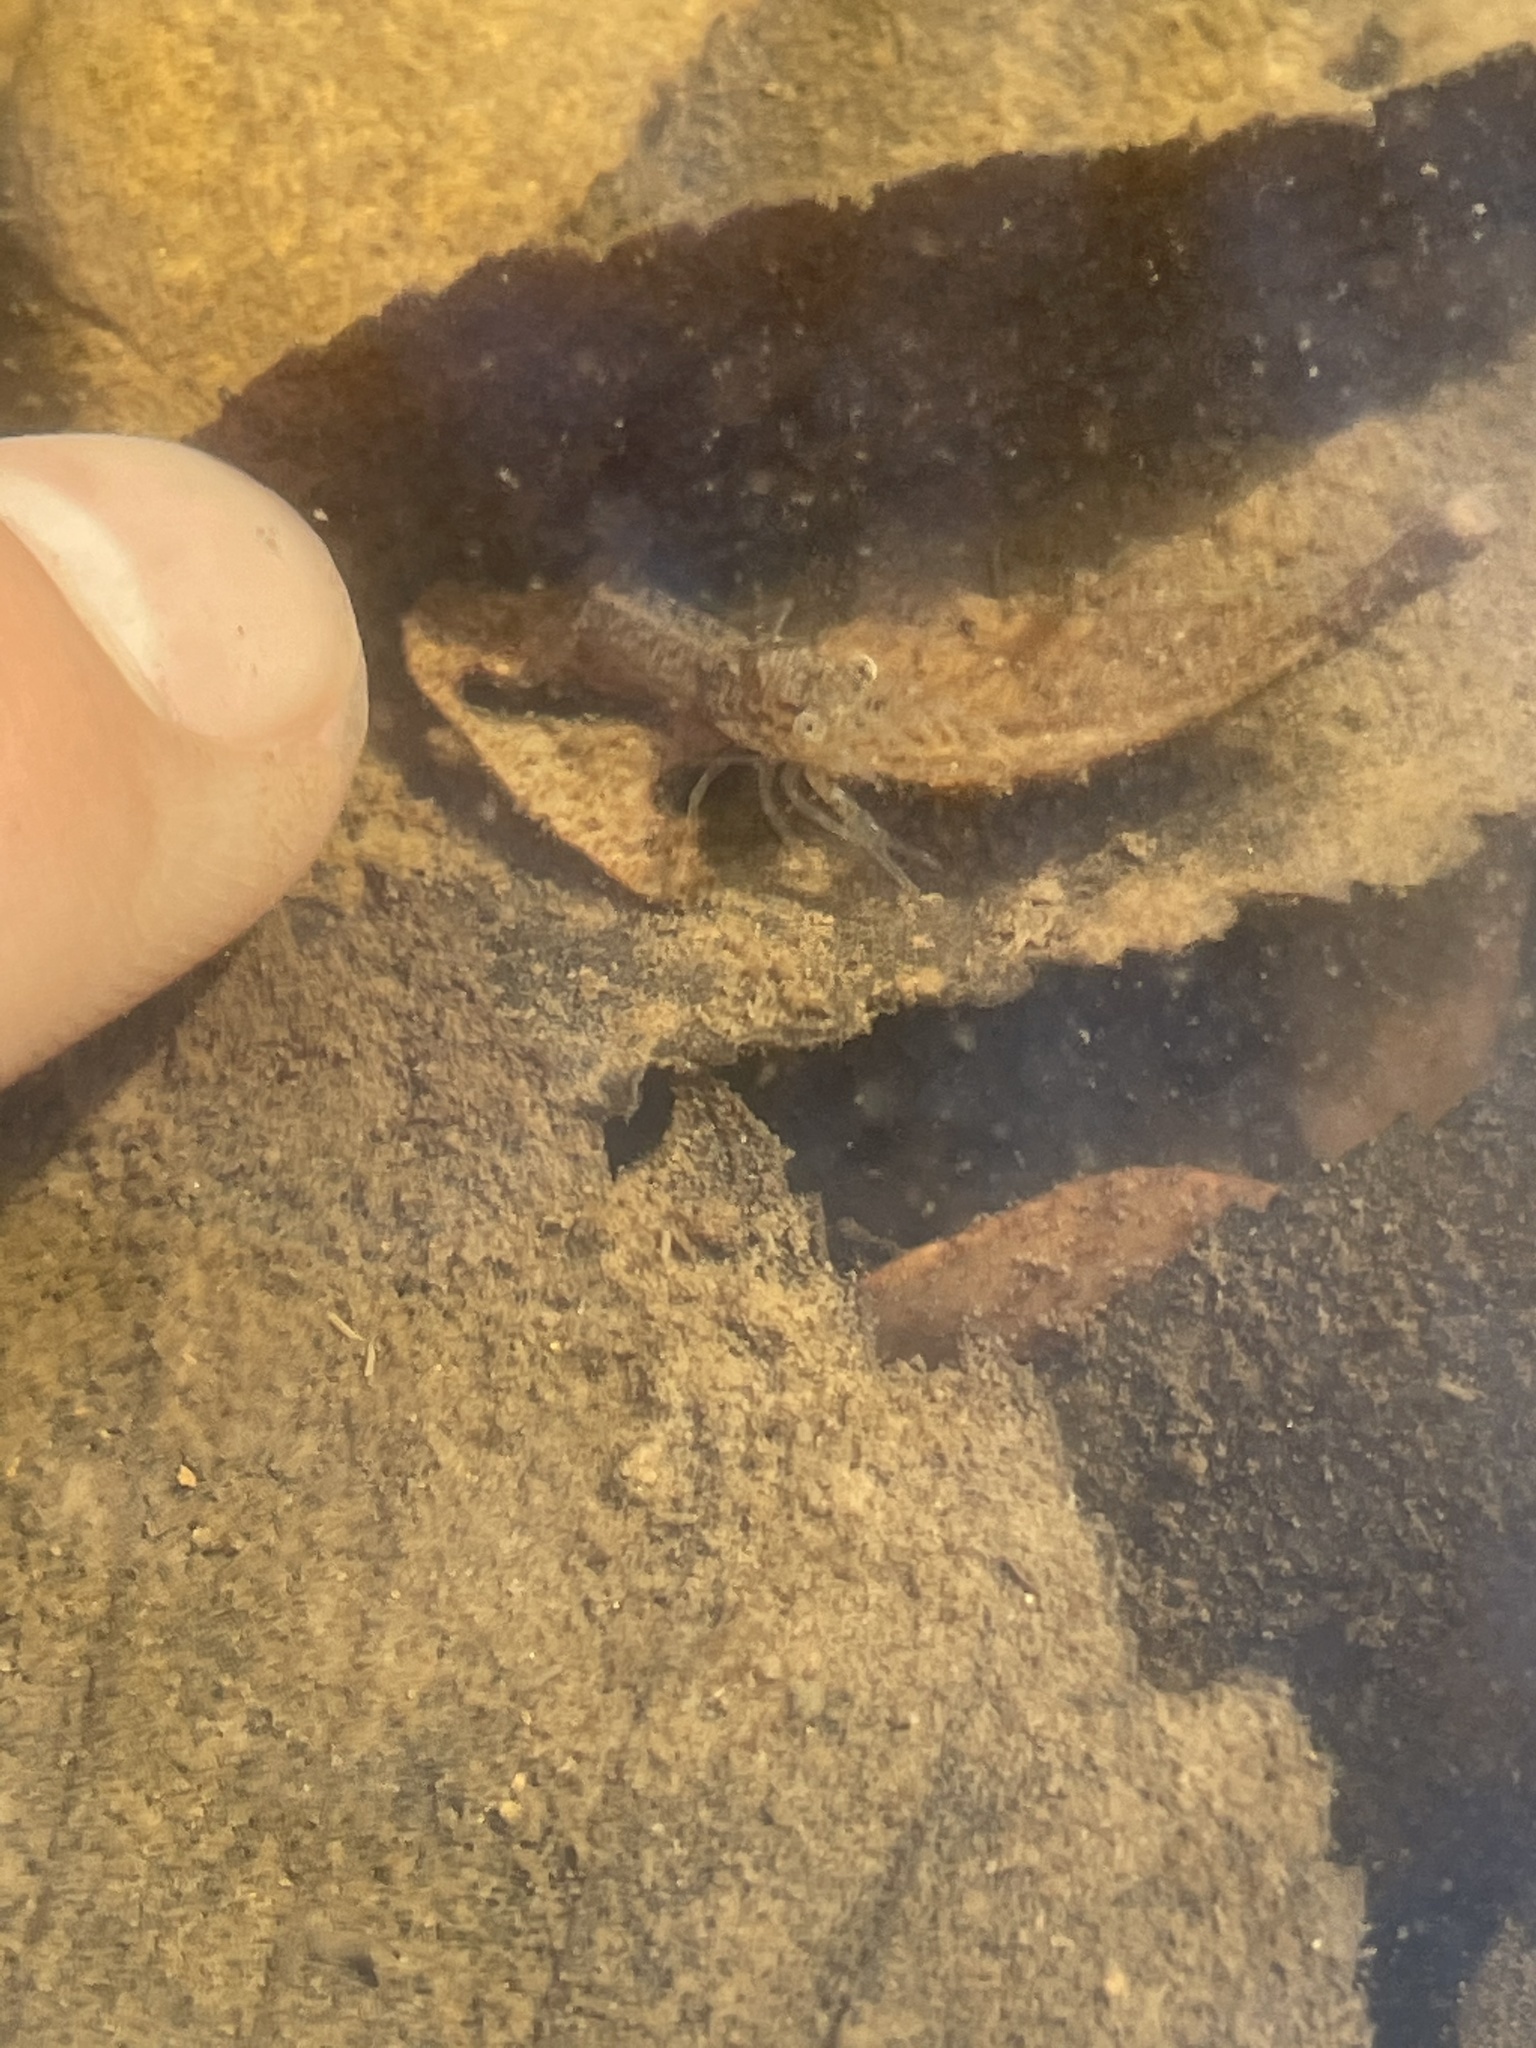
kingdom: Animalia
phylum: Arthropoda
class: Malacostraca
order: Decapoda
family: Cambaridae
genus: Procambarus
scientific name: Procambarus simulans
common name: Southern plains crayfish
